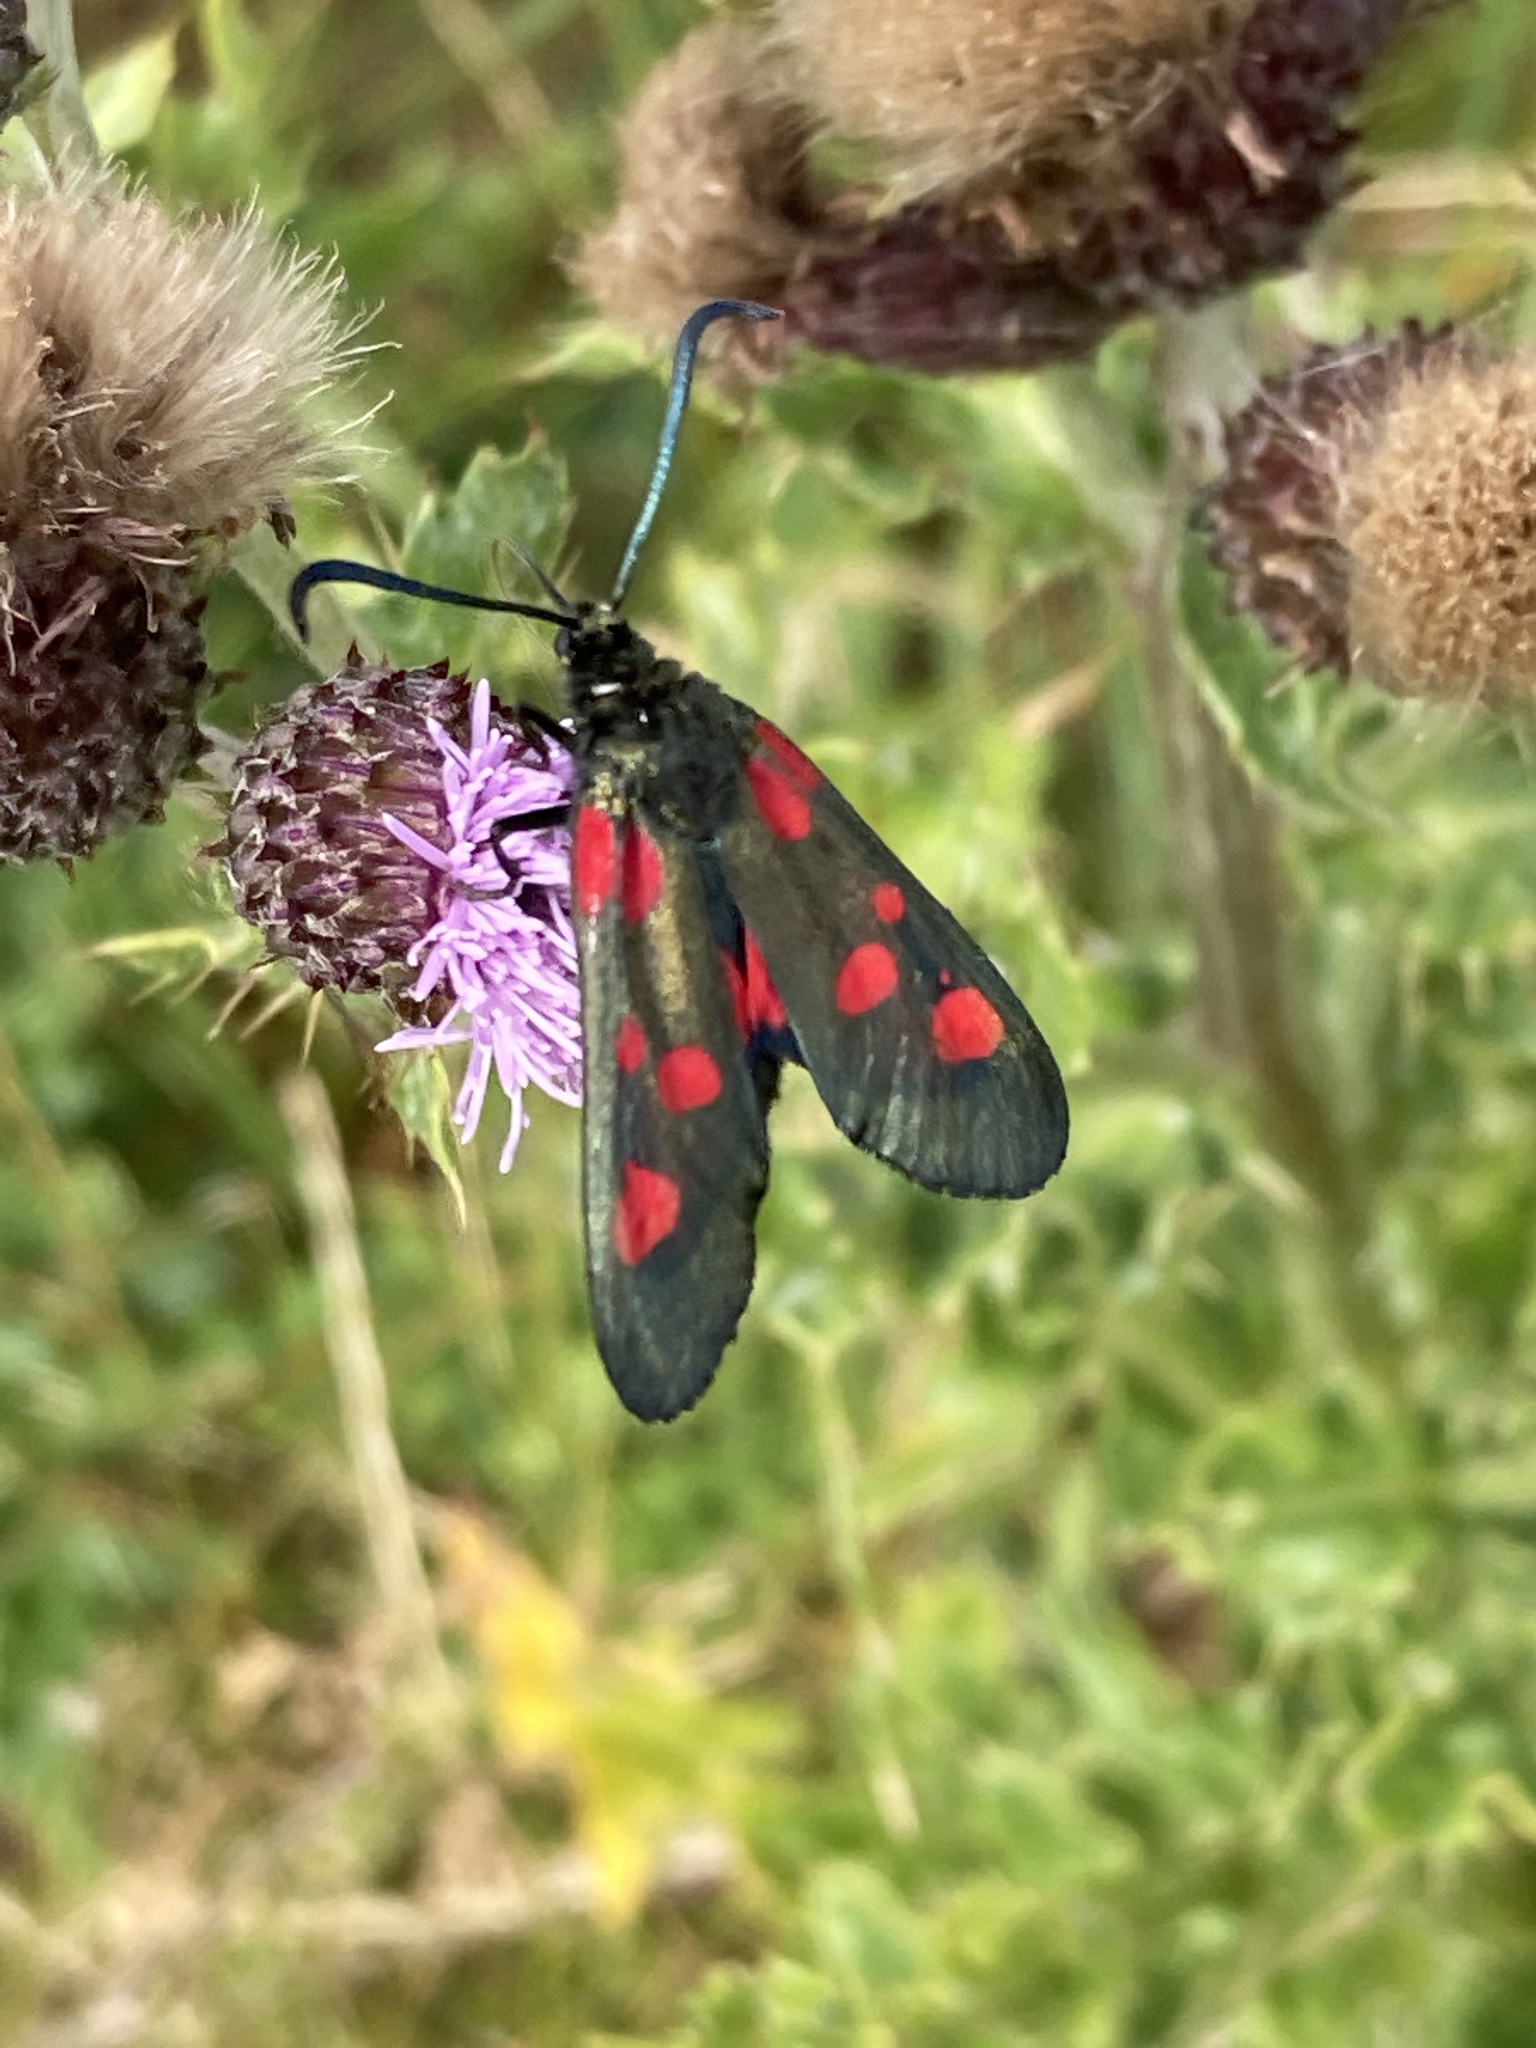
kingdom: Animalia
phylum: Arthropoda
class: Insecta
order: Lepidoptera
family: Zygaenidae
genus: Zygaena
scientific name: Zygaena lonicerae
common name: Narrow-bordered five-spot burnet
